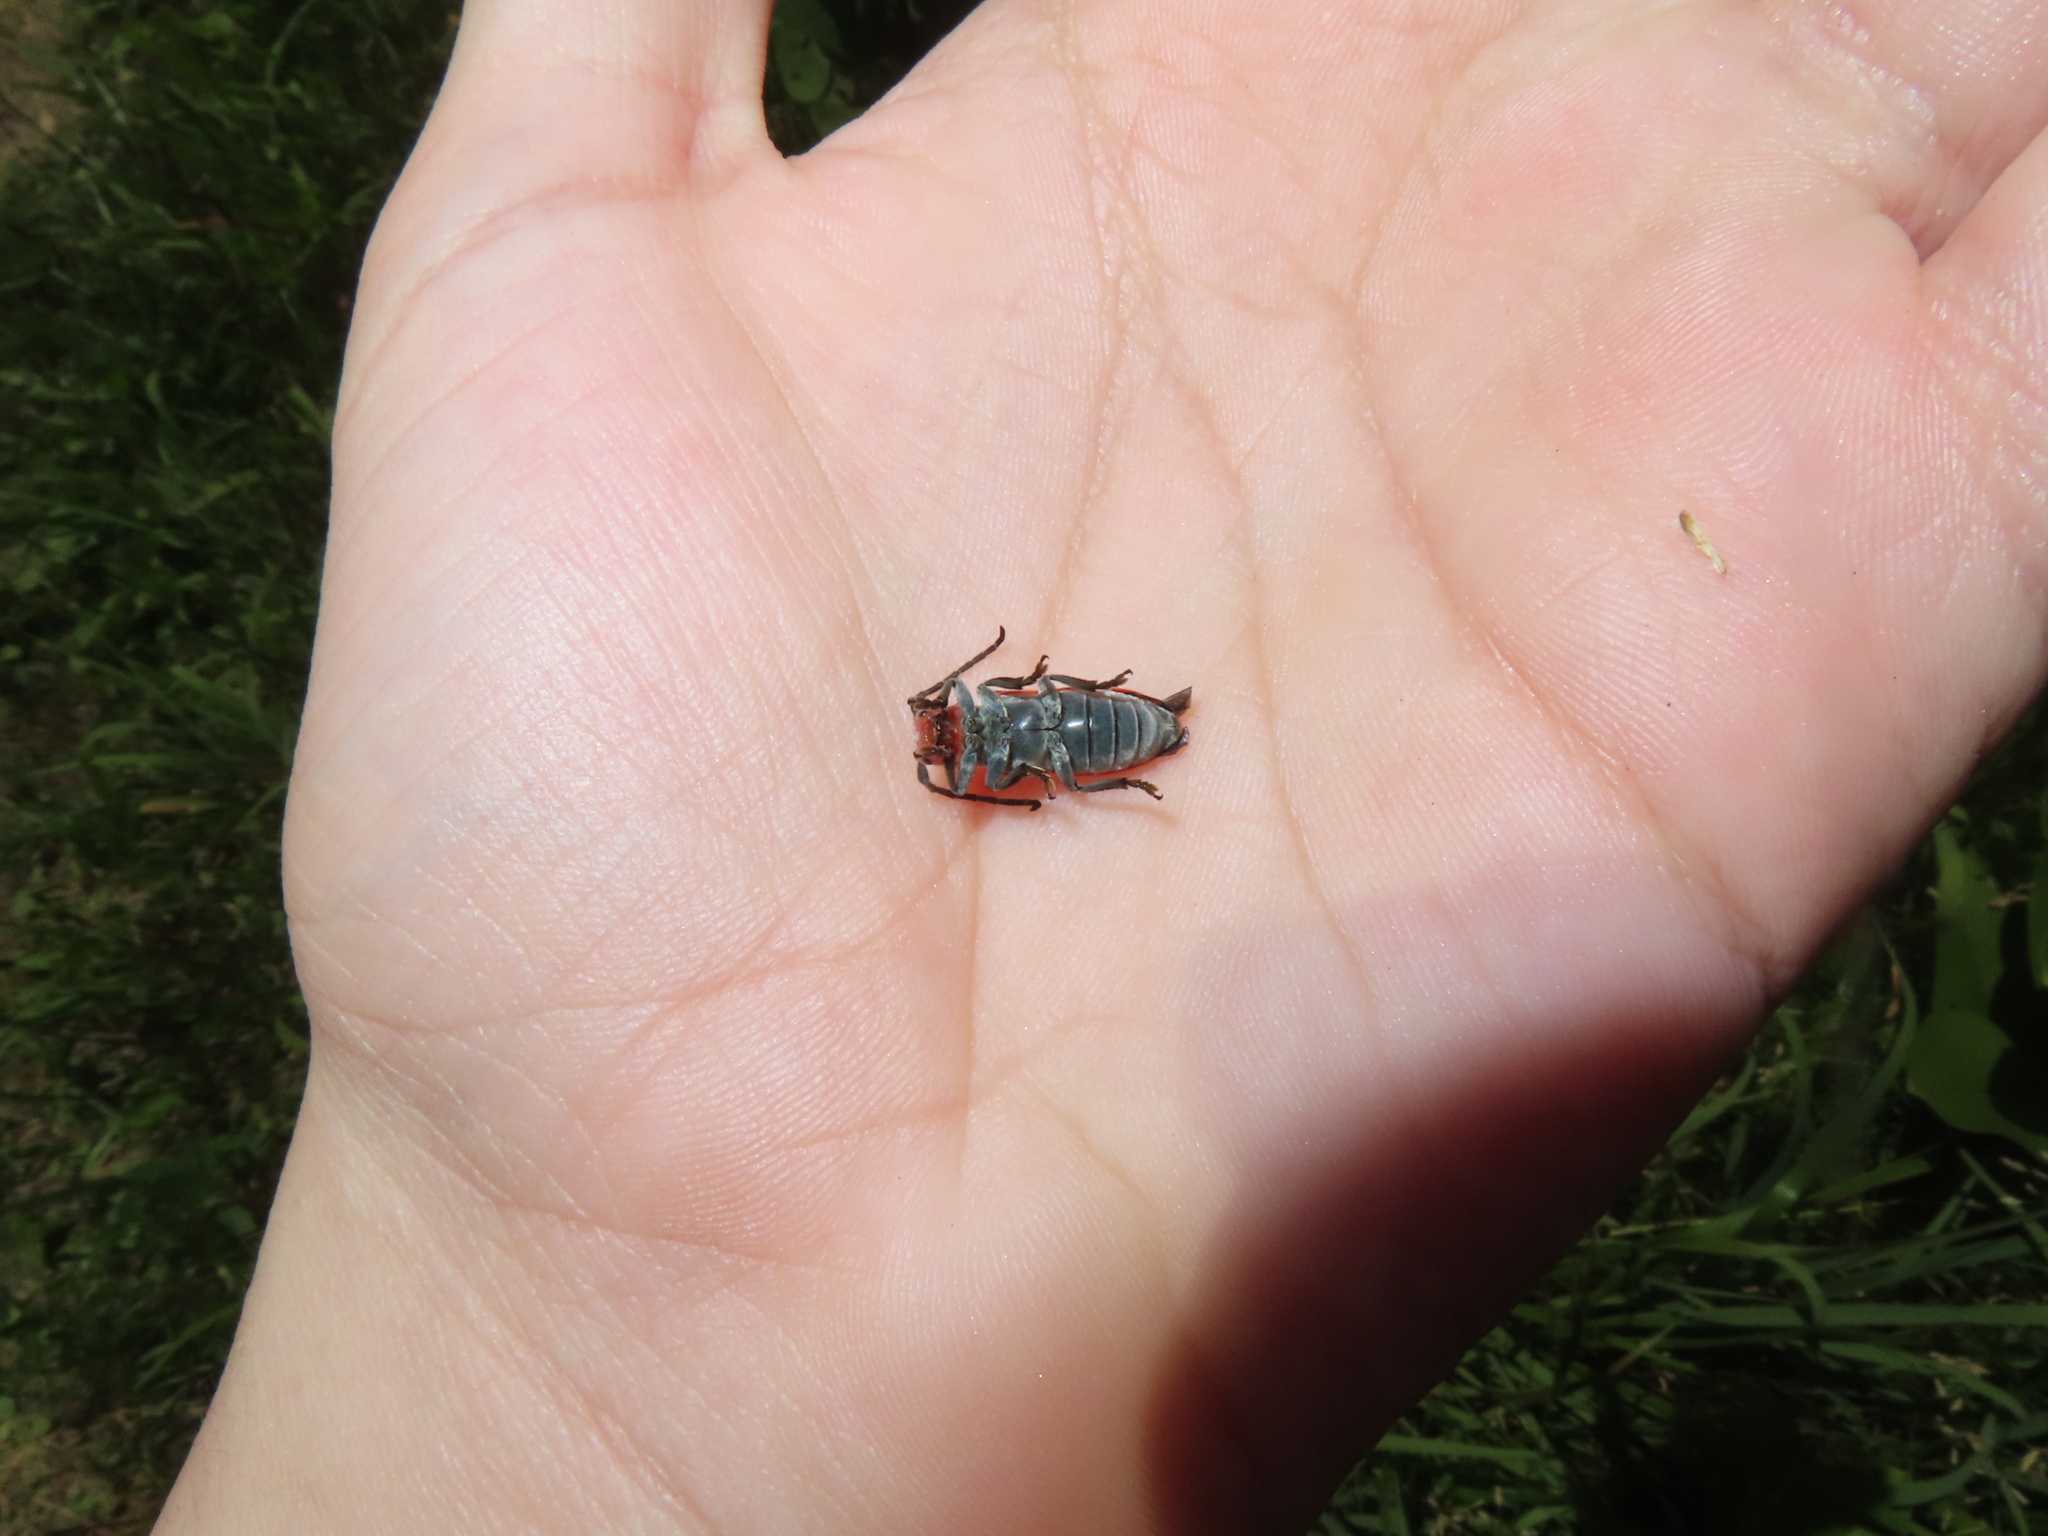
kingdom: Animalia
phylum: Arthropoda
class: Insecta
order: Coleoptera
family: Cerambycidae
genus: Tetraopes
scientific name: Tetraopes tetrophthalmus
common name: Red milkweed beetle
